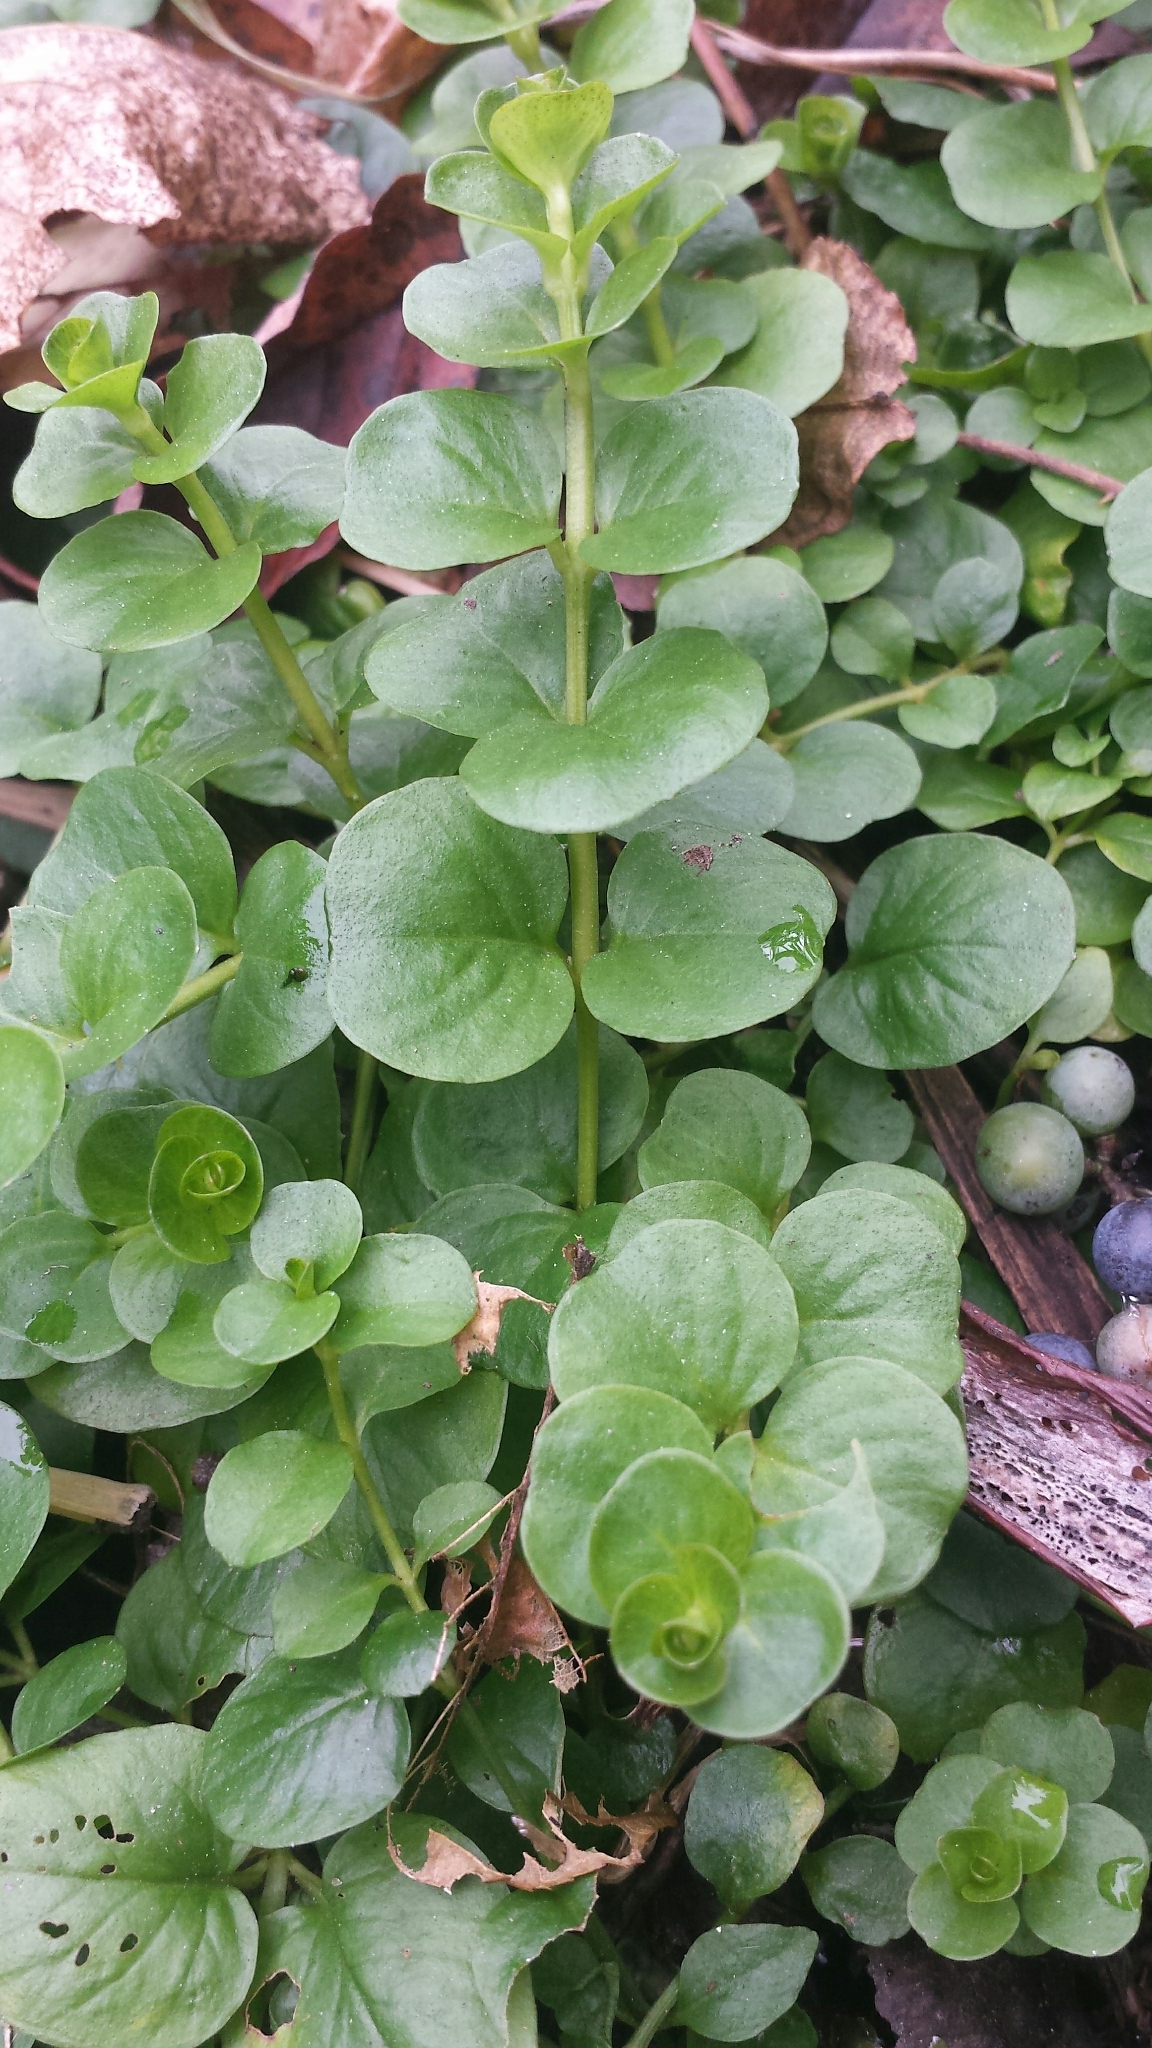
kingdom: Plantae
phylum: Tracheophyta
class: Magnoliopsida
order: Ericales
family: Primulaceae
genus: Lysimachia
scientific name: Lysimachia nummularia
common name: Moneywort
